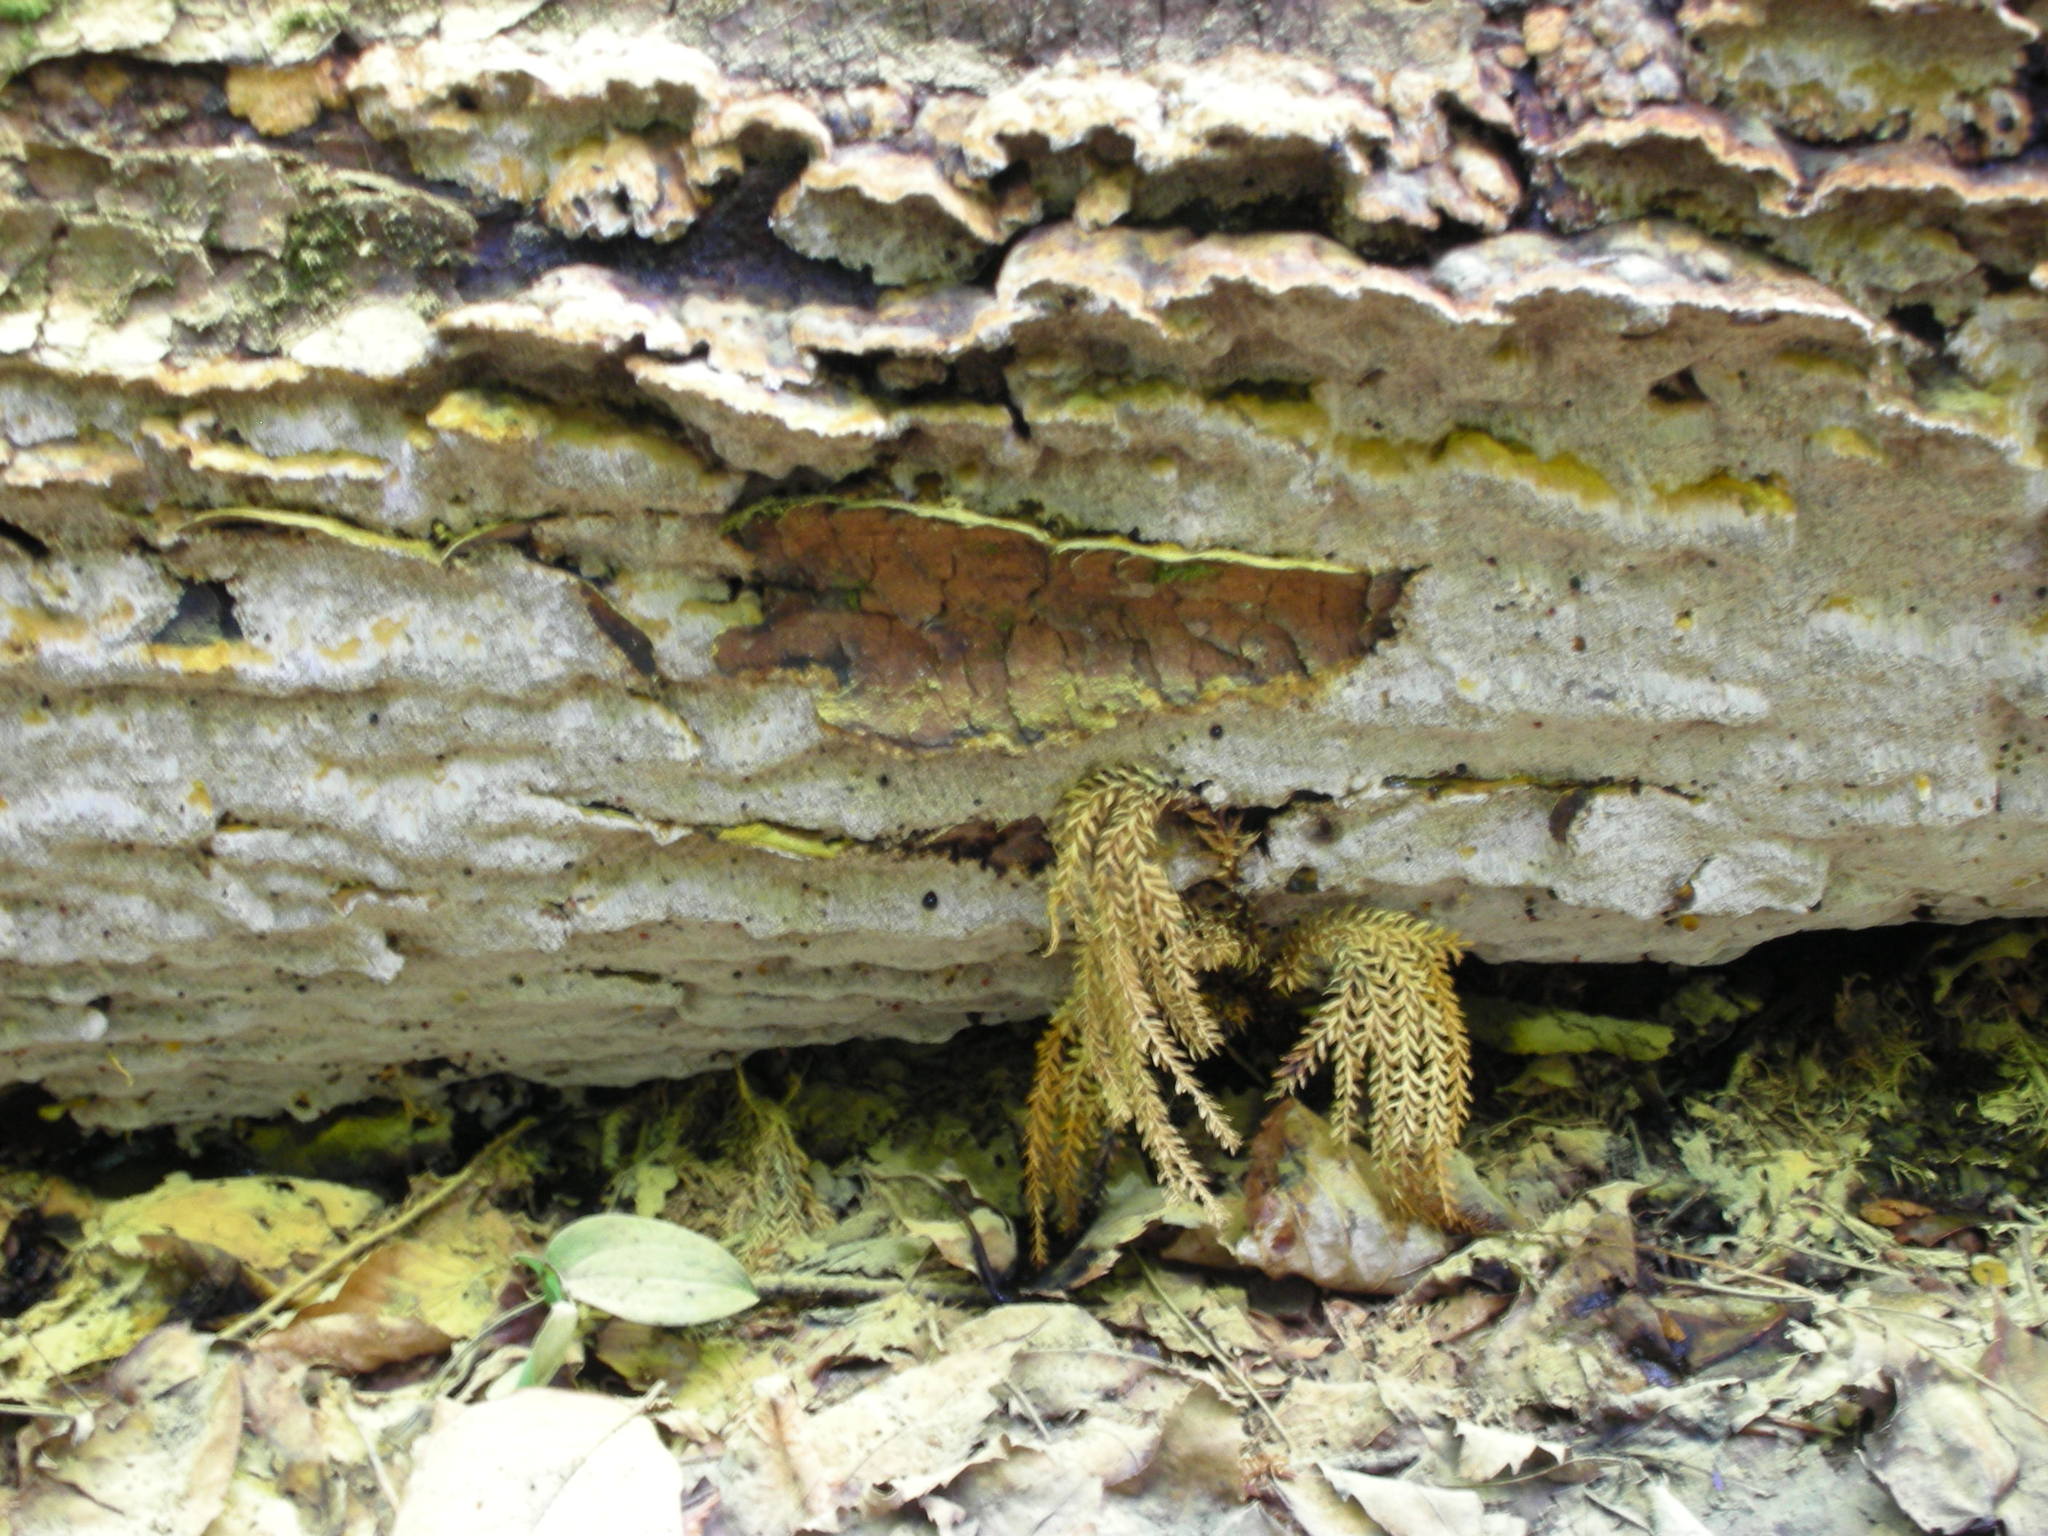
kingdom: Fungi
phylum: Basidiomycota
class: Agaricomycetes
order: Hymenochaetales
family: Hymenochaetaceae
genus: Rigidonotus
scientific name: Rigidonotus glomeratus
